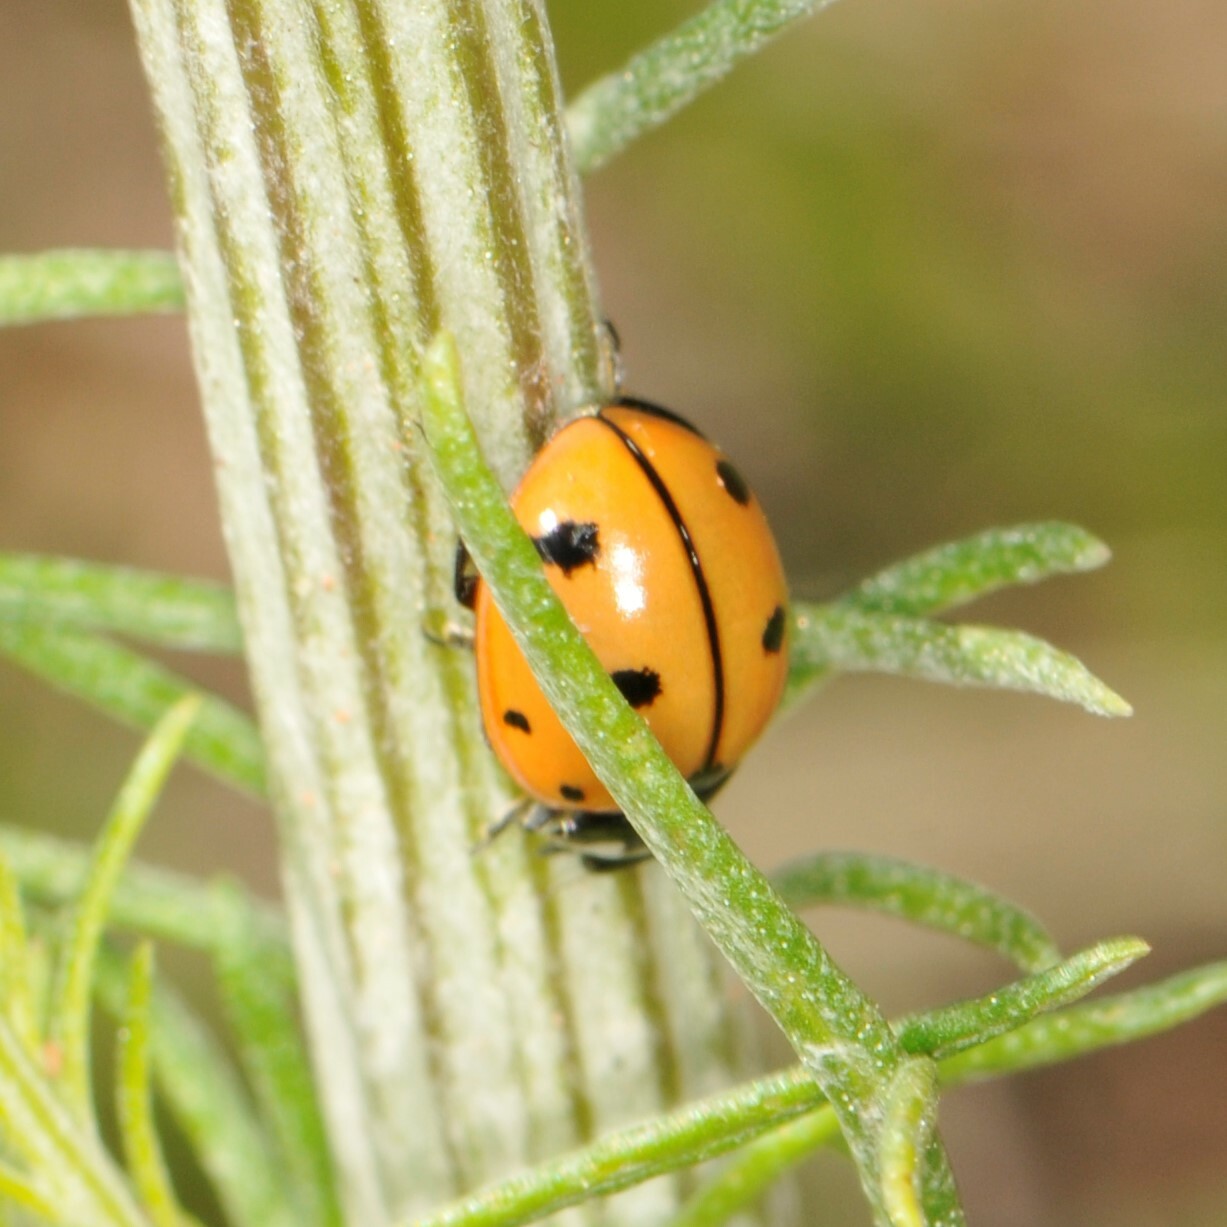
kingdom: Animalia
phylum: Arthropoda
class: Insecta
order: Coleoptera
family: Coccinellidae
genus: Coccinella
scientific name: Coccinella novemnotata
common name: Nine-spotted lady beetle
